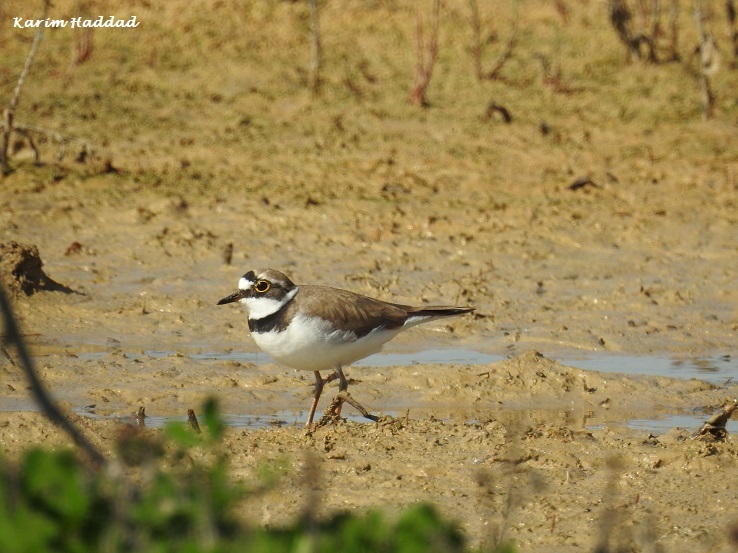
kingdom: Animalia
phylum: Chordata
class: Aves
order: Charadriiformes
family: Charadriidae
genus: Charadrius
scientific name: Charadrius dubius
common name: Little ringed plover
